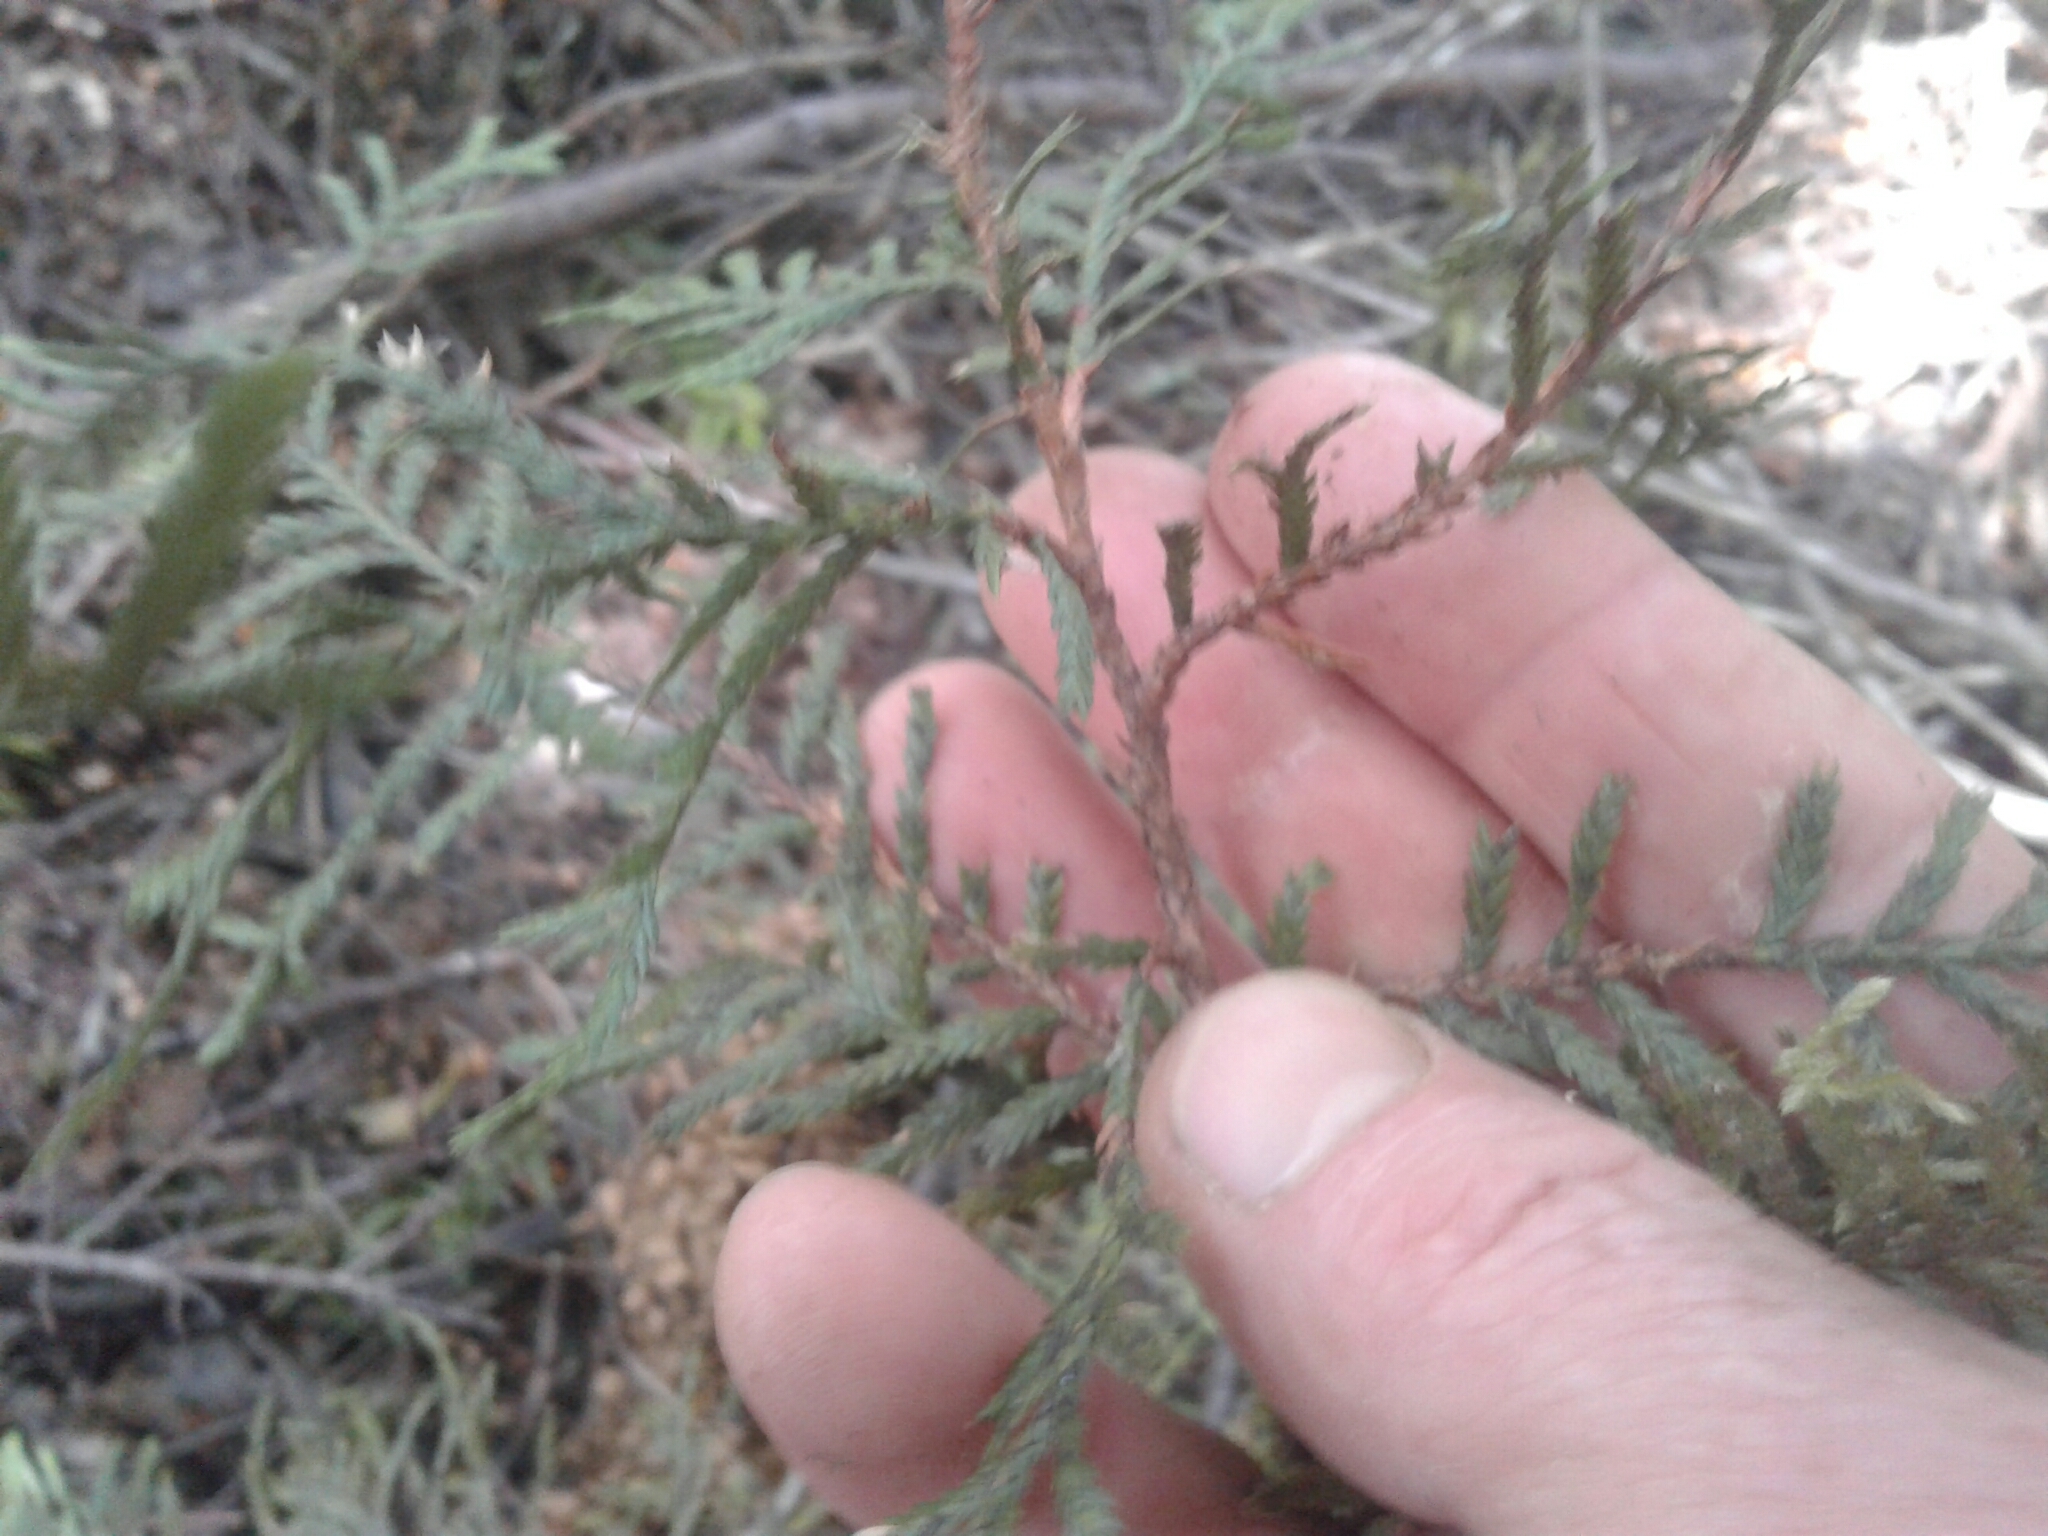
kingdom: Plantae
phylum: Tracheophyta
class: Pinopsida
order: Pinales
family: Cupressaceae
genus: Libocedrus
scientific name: Libocedrus bidwillii
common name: Cedar
